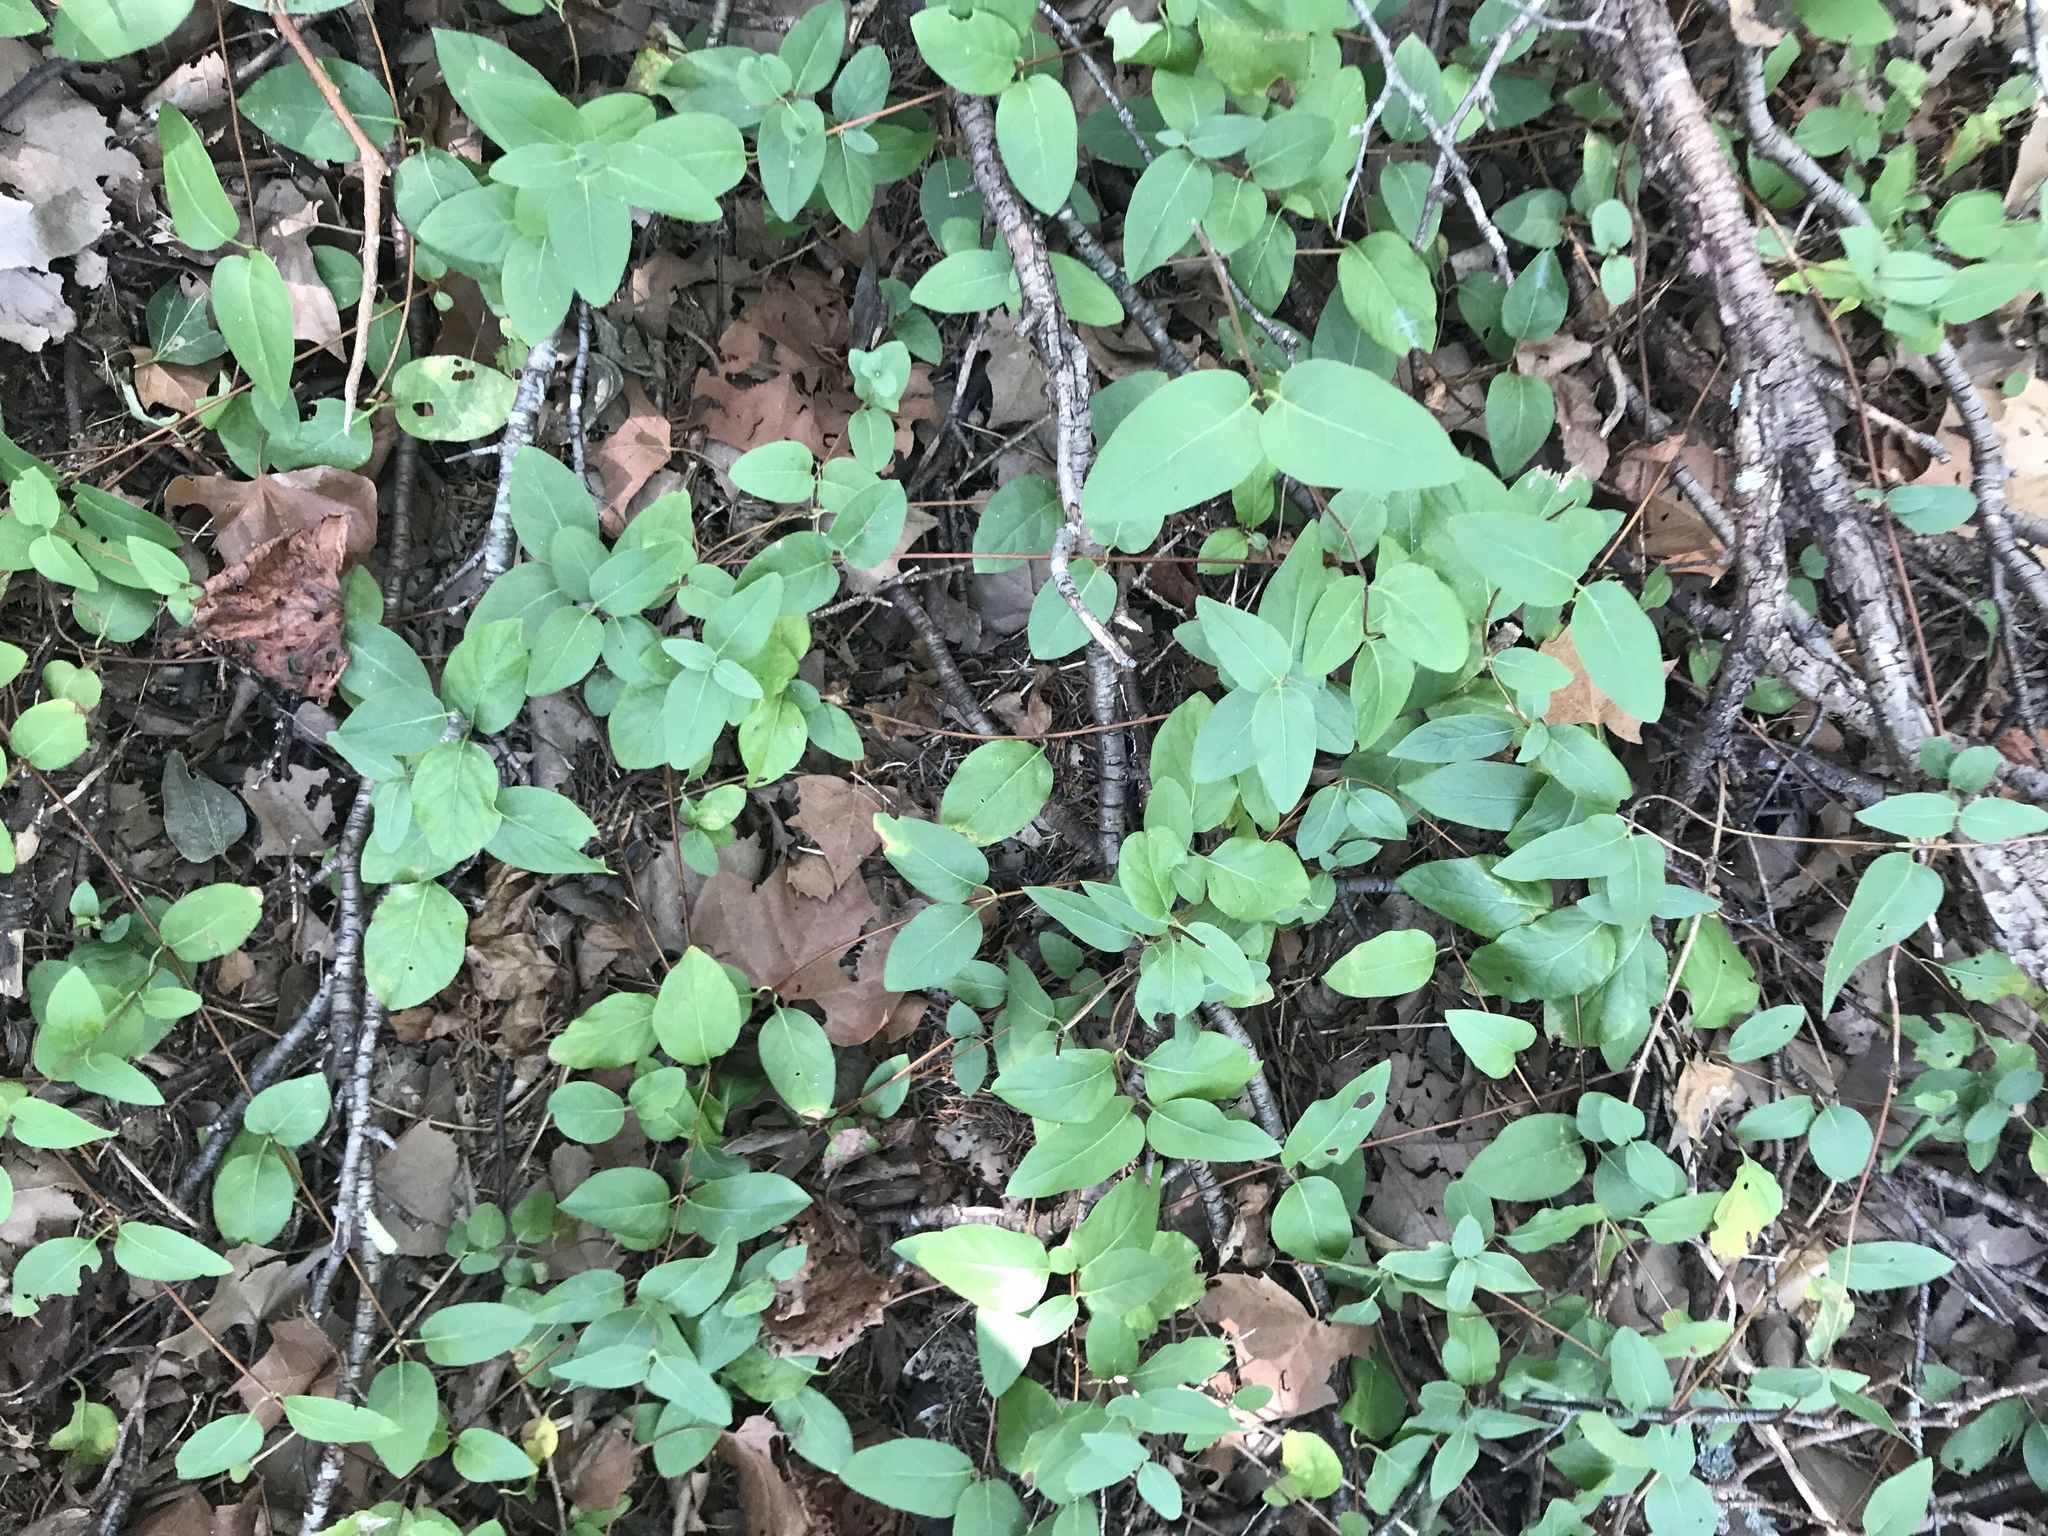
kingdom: Plantae
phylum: Tracheophyta
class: Magnoliopsida
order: Dipsacales
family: Caprifoliaceae
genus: Lonicera
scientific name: Lonicera japonica
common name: Japanese honeysuckle
